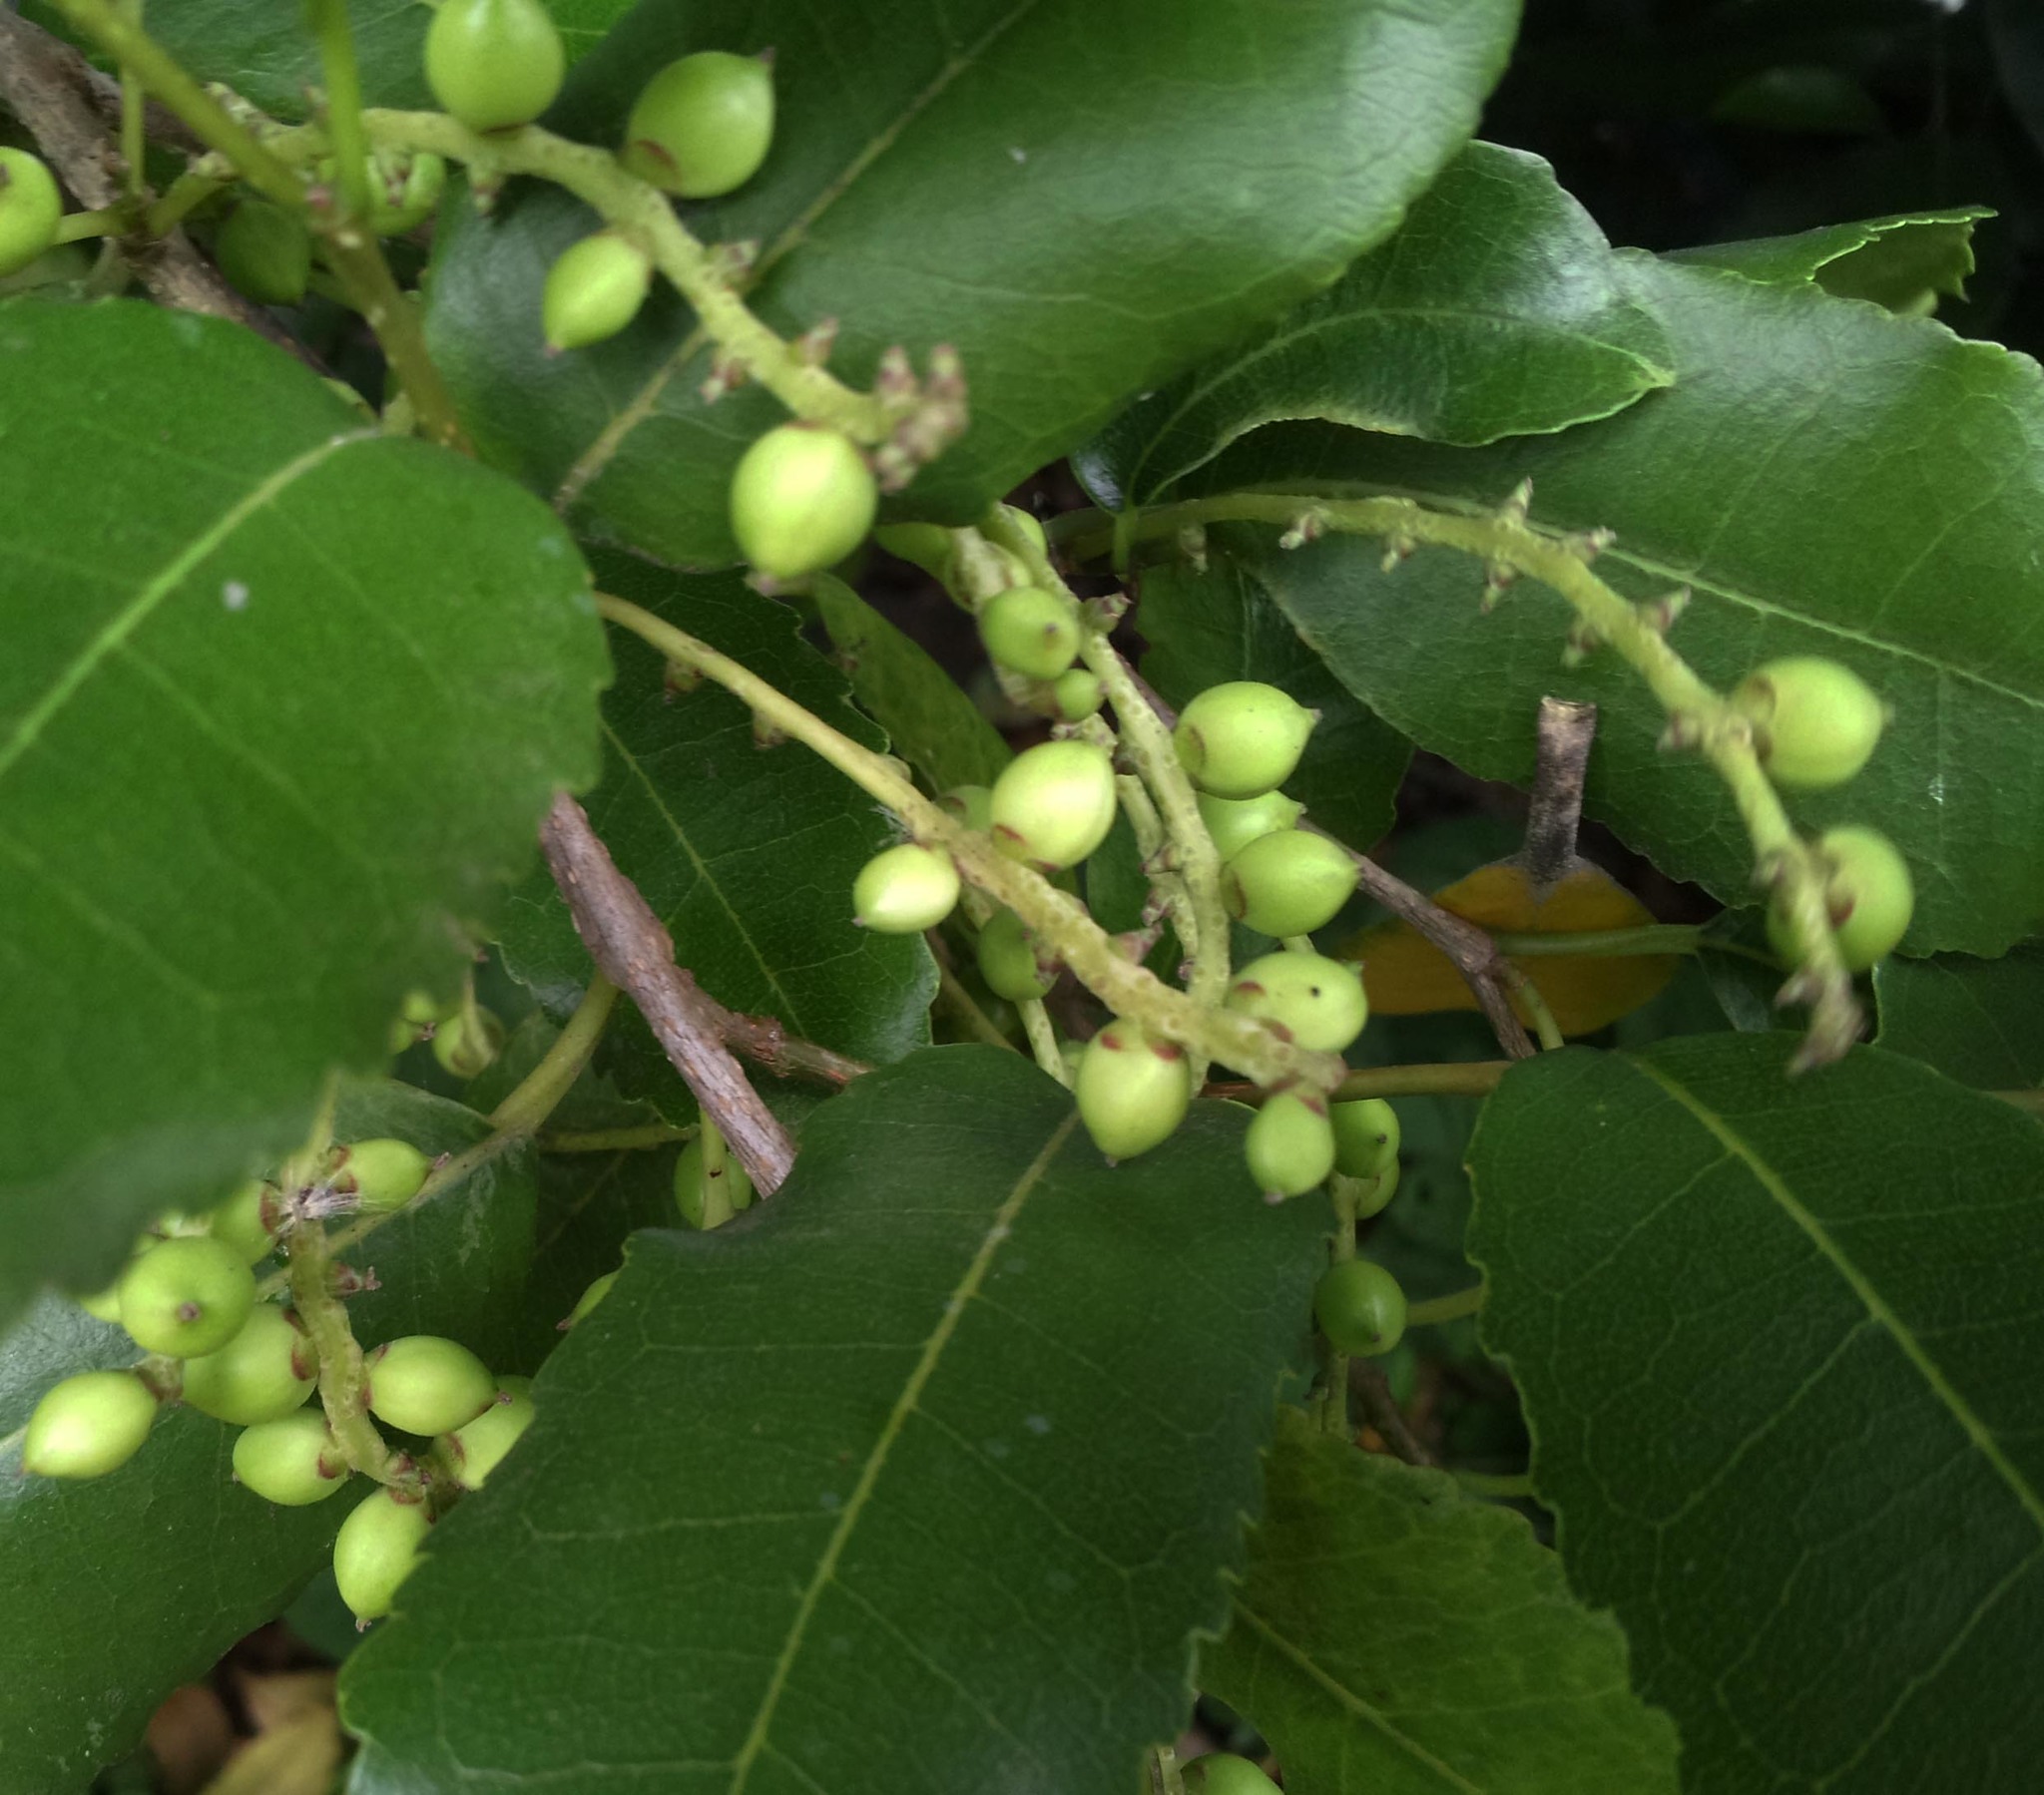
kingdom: Plantae
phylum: Tracheophyta
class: Magnoliopsida
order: Rosales
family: Moraceae
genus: Paratrophis
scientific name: Paratrophis banksii
